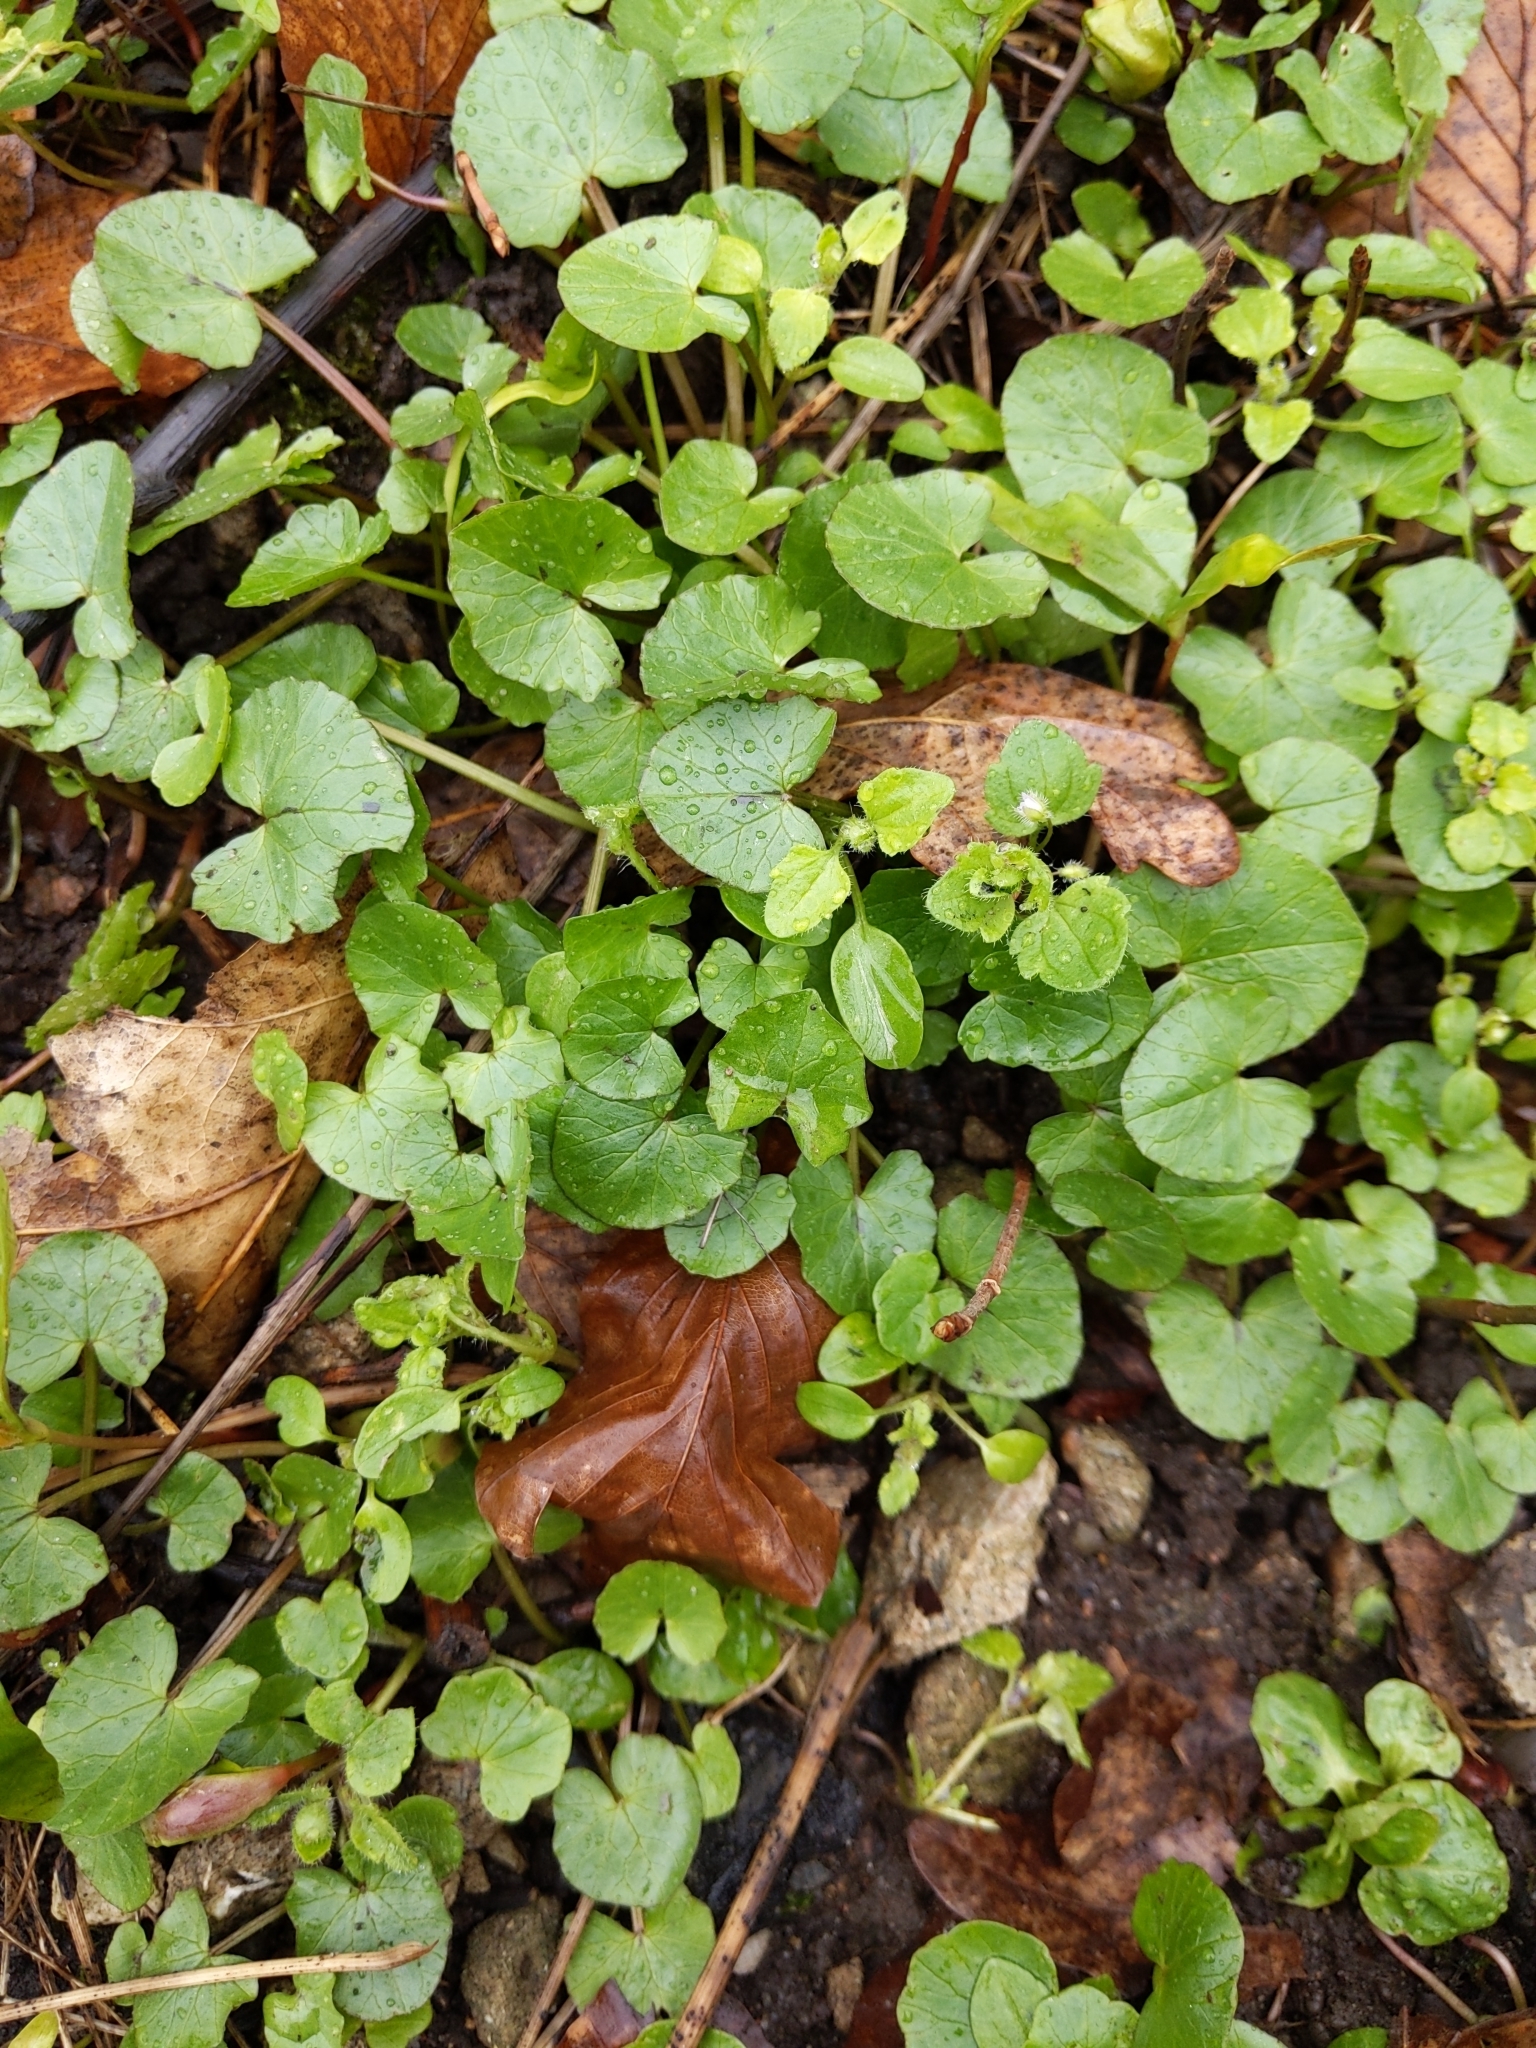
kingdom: Plantae
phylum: Tracheophyta
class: Magnoliopsida
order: Ranunculales
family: Ranunculaceae
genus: Ficaria
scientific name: Ficaria verna
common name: Lesser celandine
